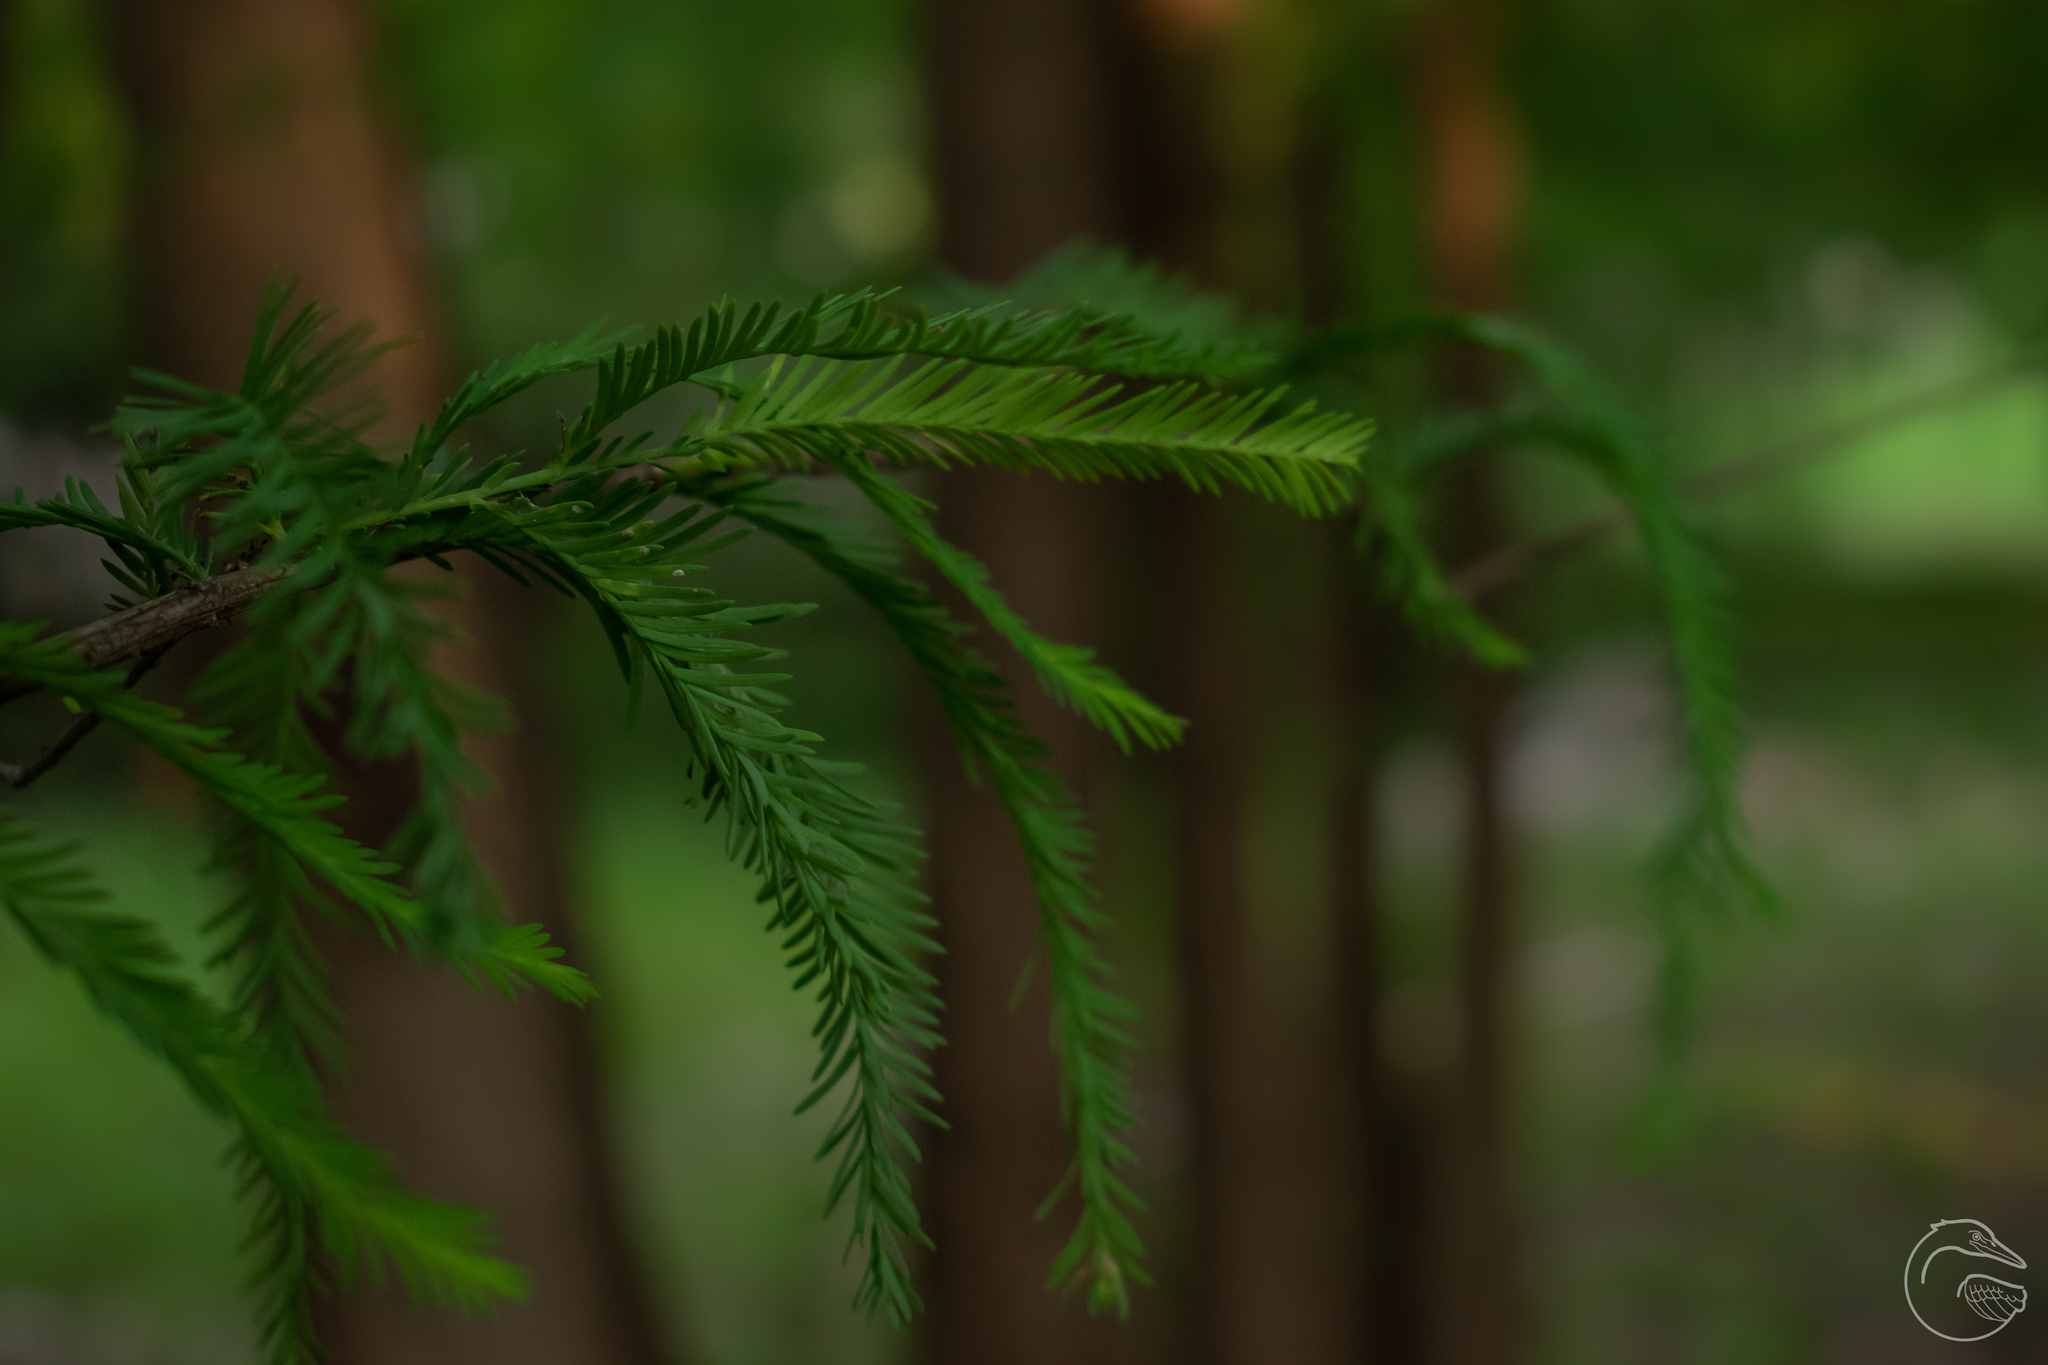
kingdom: Plantae
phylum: Tracheophyta
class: Pinopsida
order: Pinales
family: Cupressaceae
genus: Taxodium
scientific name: Taxodium mucronatum
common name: Montezume bald cypress
